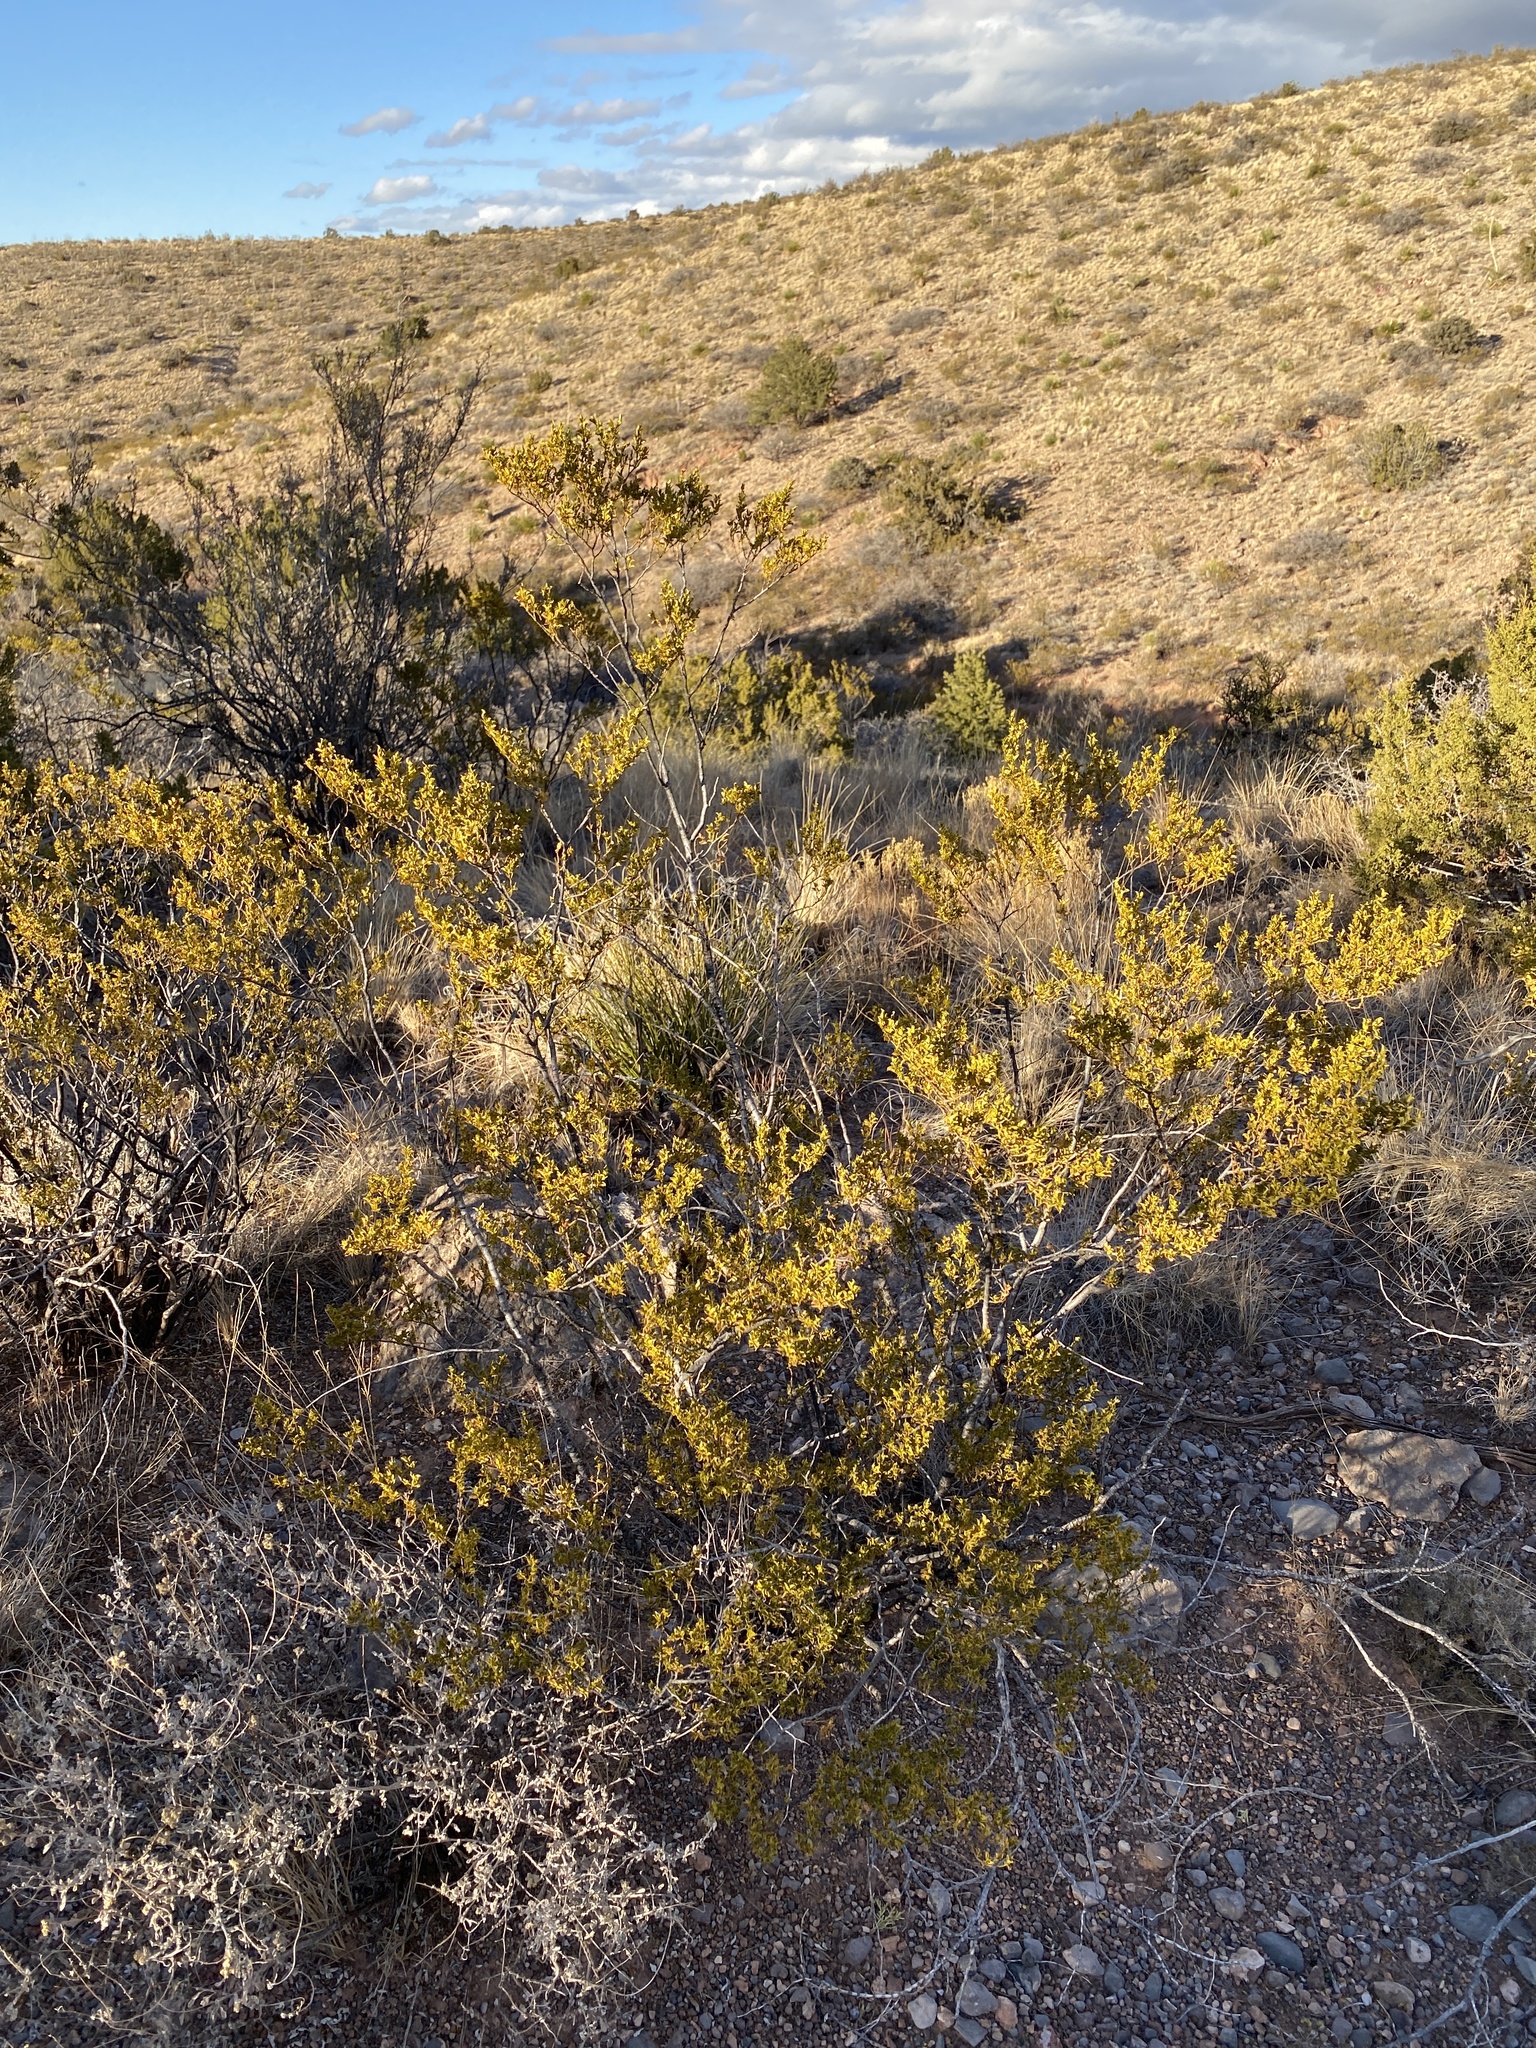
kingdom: Plantae
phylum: Tracheophyta
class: Magnoliopsida
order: Zygophyllales
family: Zygophyllaceae
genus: Larrea
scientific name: Larrea tridentata
